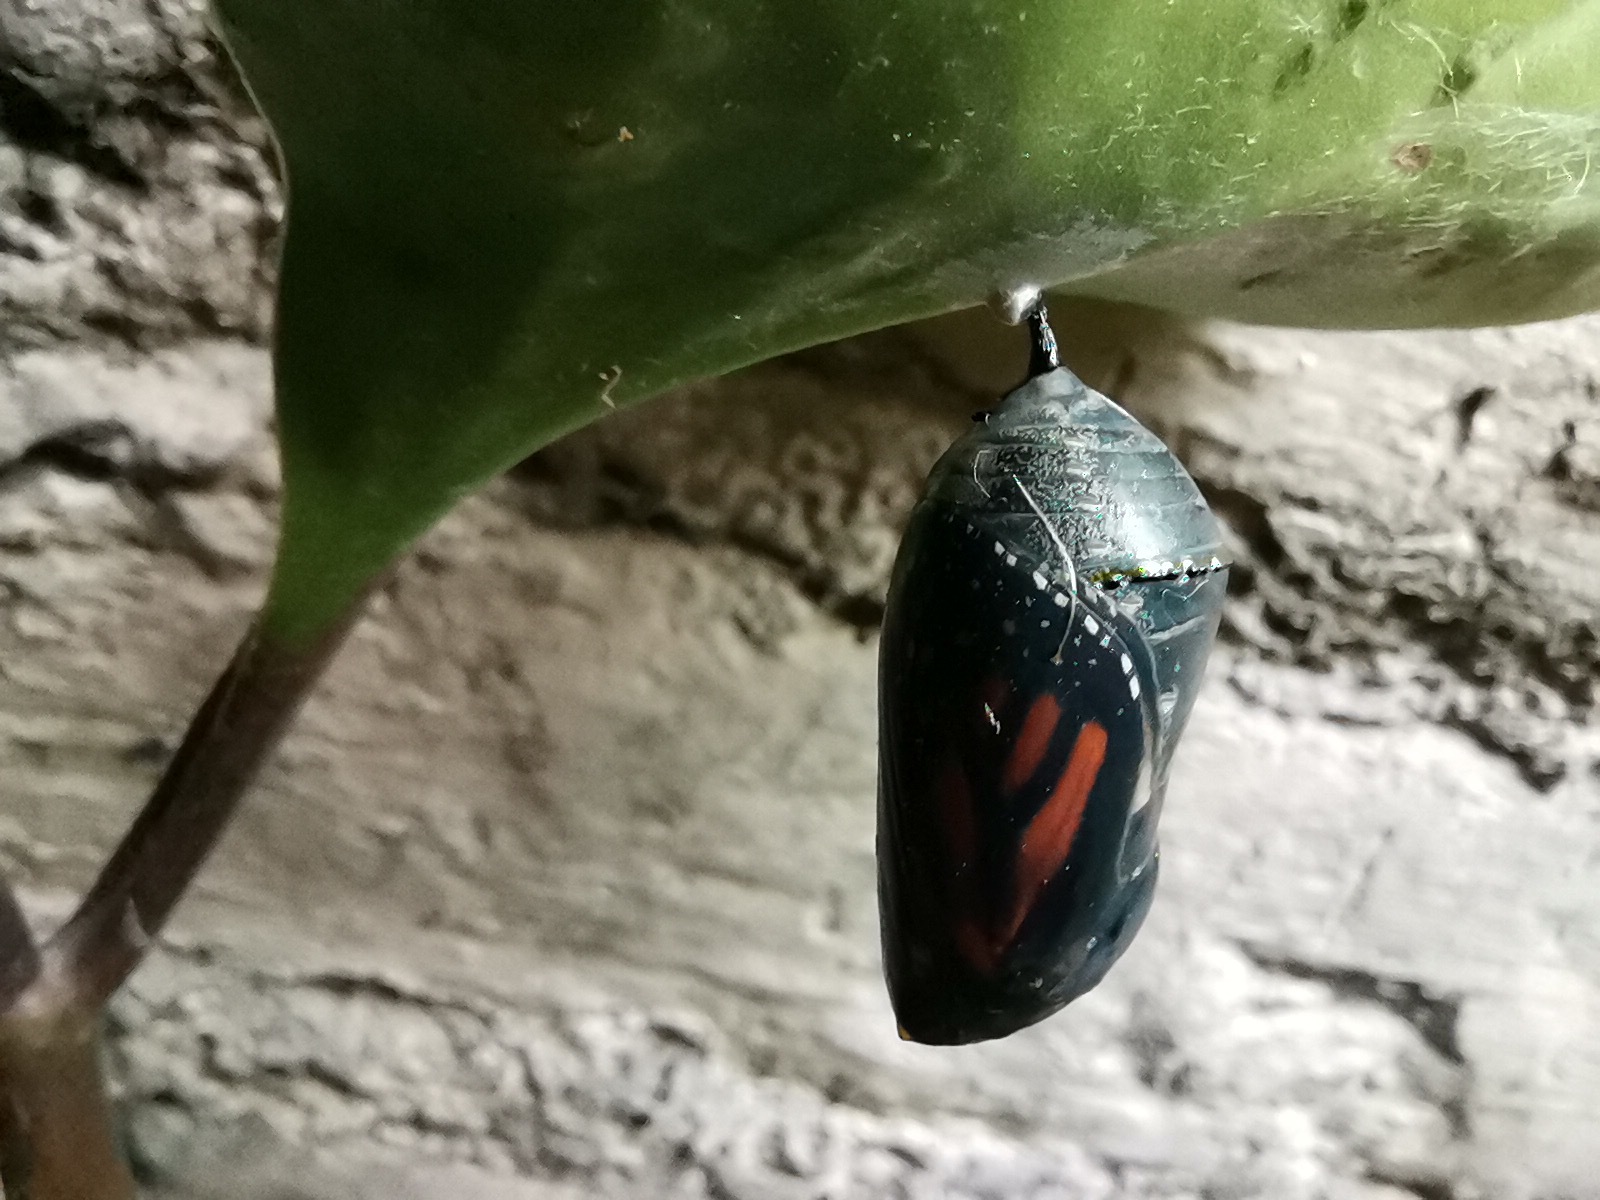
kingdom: Animalia
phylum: Arthropoda
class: Insecta
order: Lepidoptera
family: Nymphalidae
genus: Danaus
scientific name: Danaus plexippus
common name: Monarch
